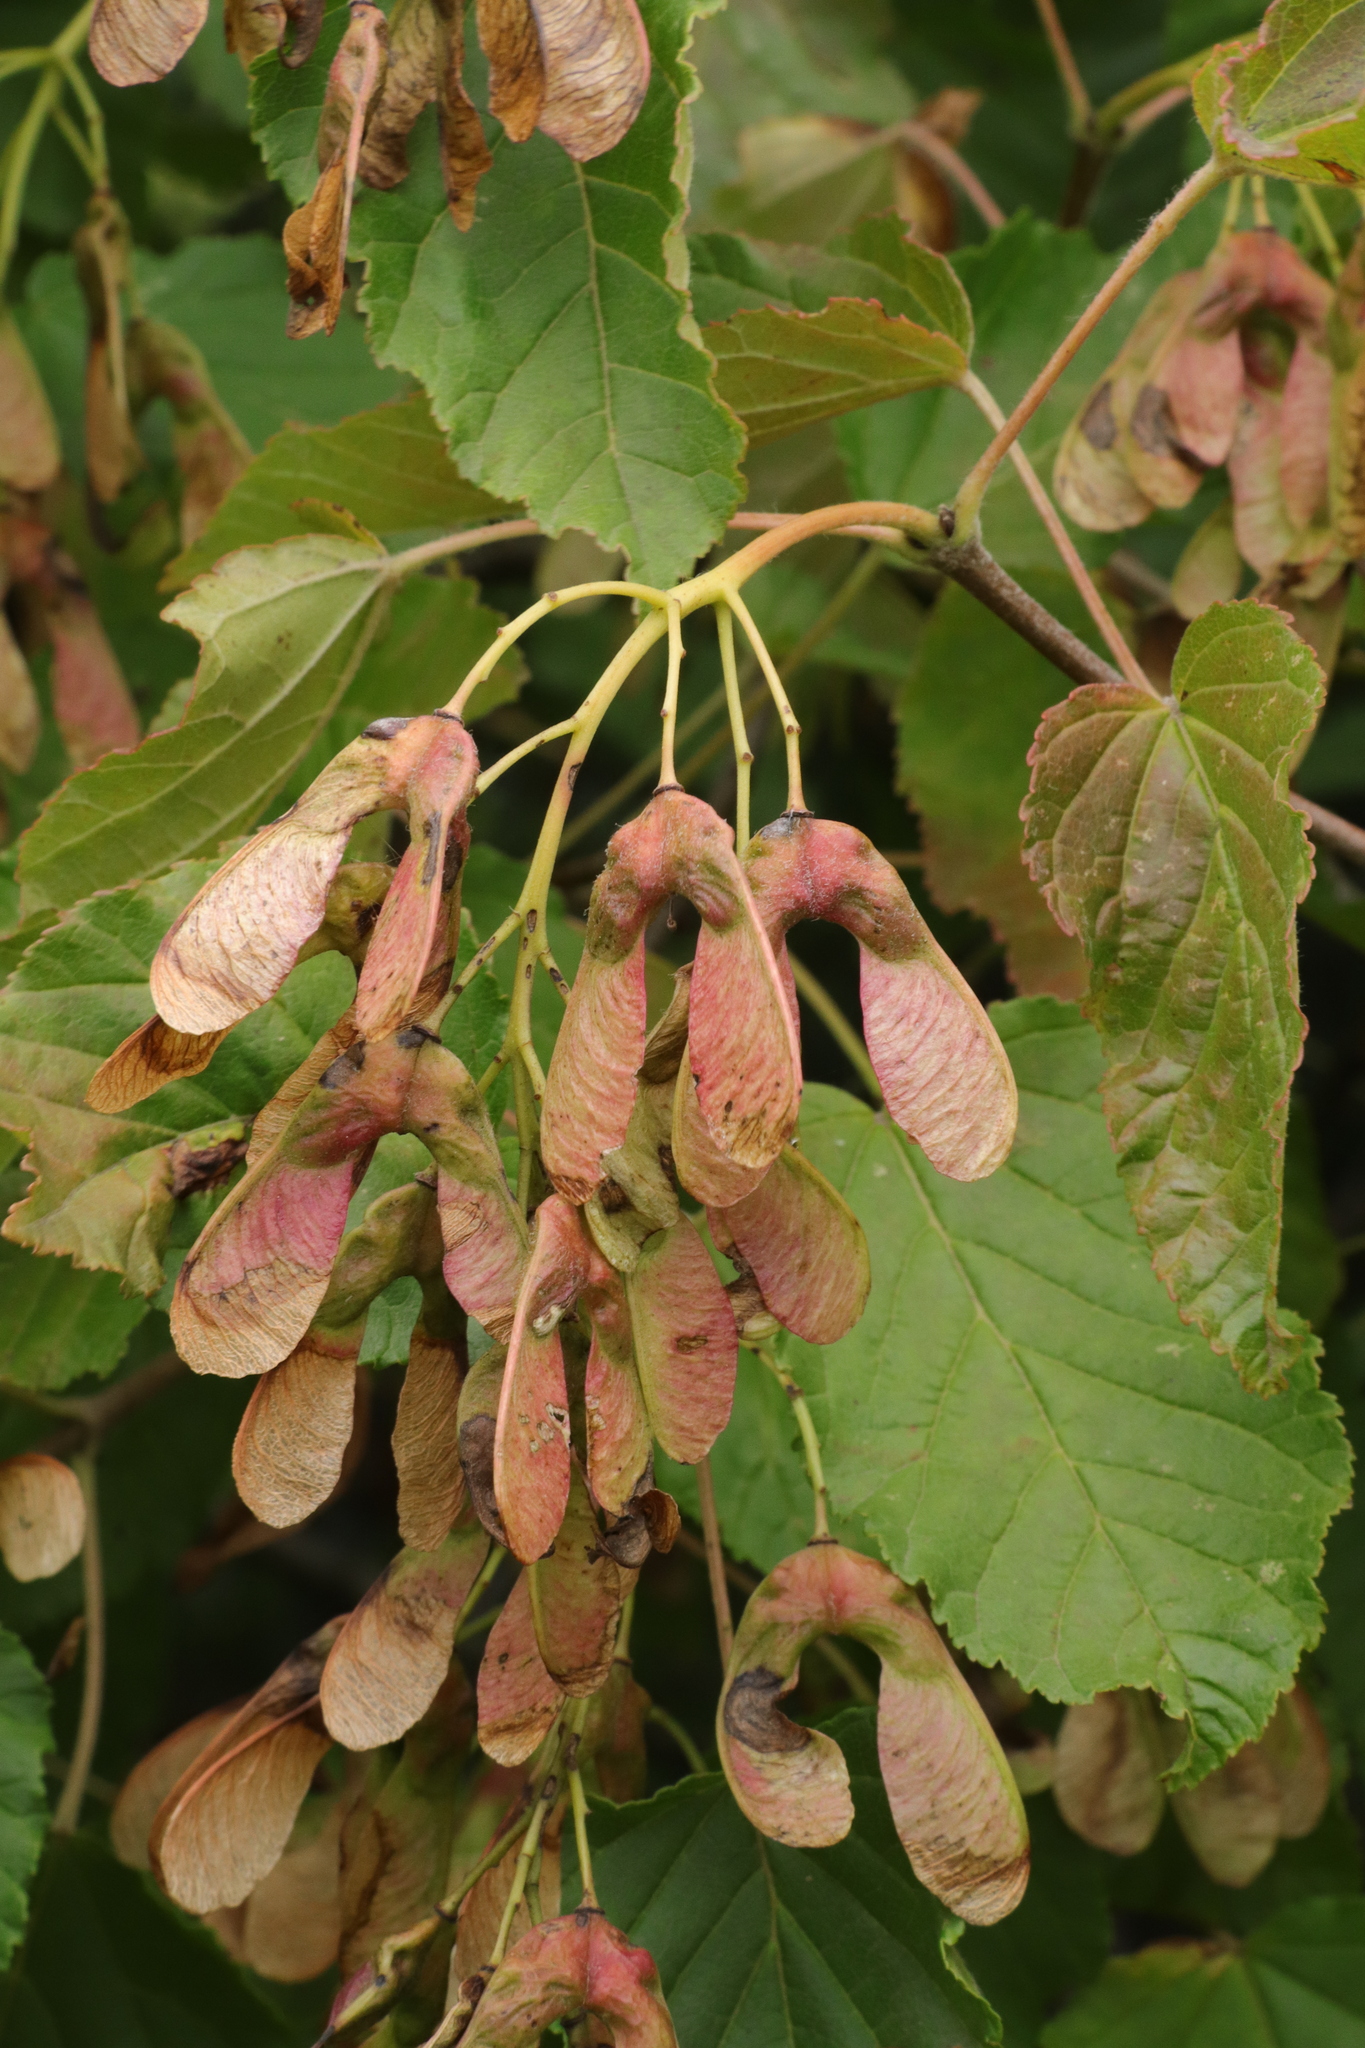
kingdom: Plantae
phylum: Tracheophyta
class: Magnoliopsida
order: Sapindales
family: Sapindaceae
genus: Acer
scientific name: Acer tataricum
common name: Tartar maple
